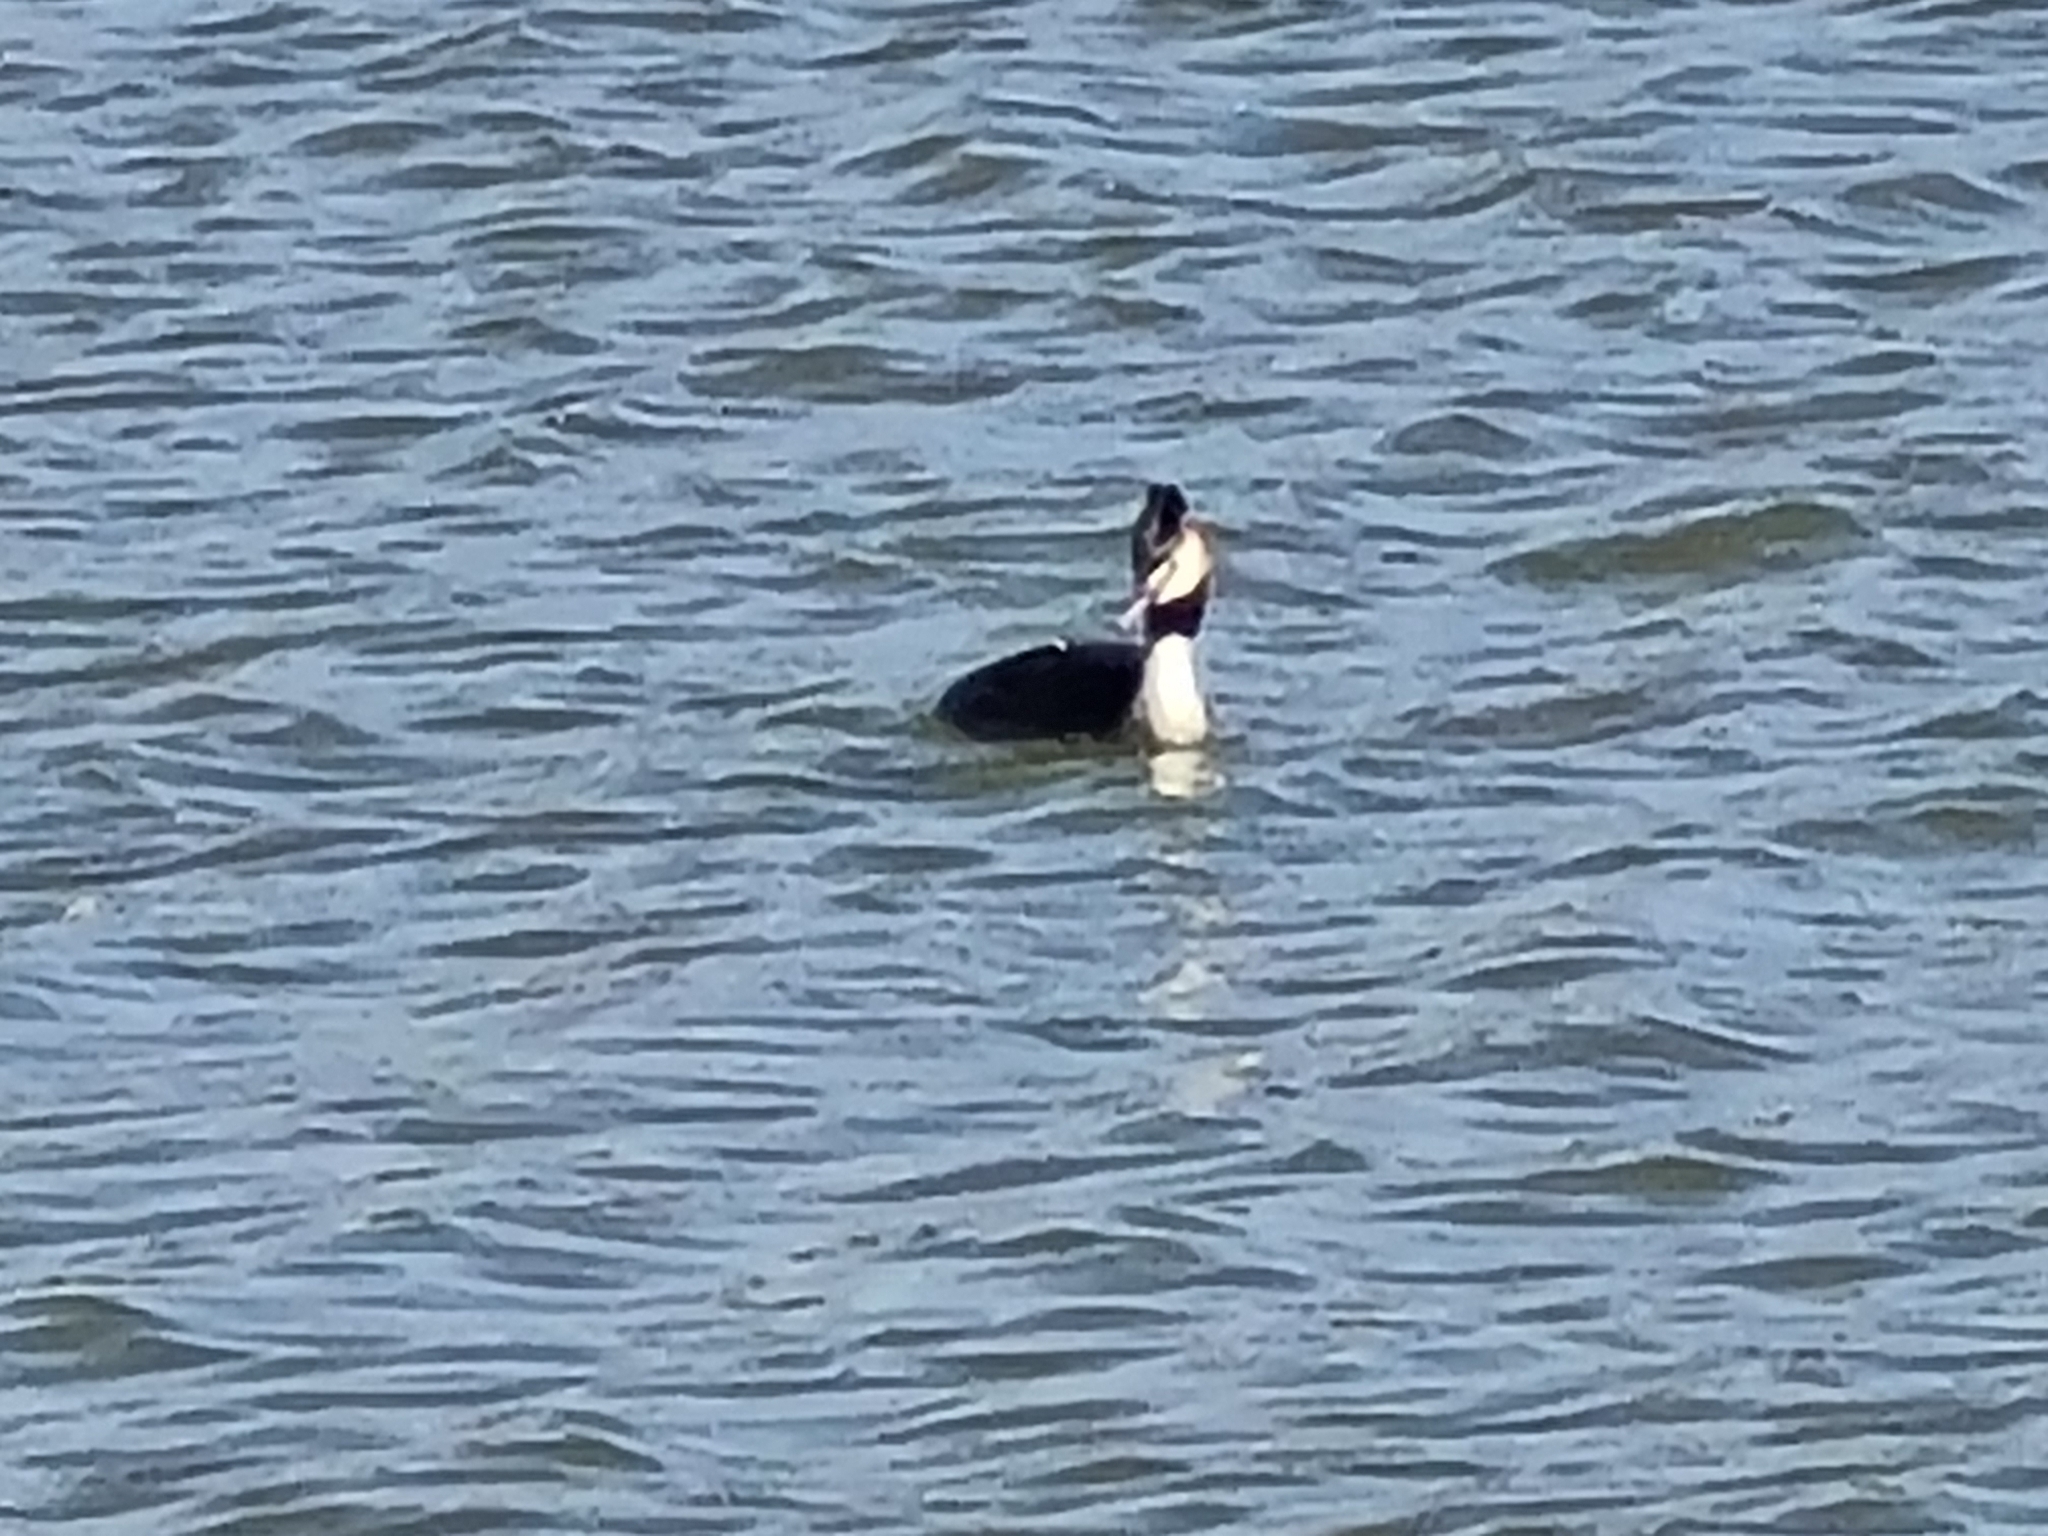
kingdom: Animalia
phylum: Chordata
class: Aves
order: Podicipediformes
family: Podicipedidae
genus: Podiceps
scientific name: Podiceps cristatus
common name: Great crested grebe
